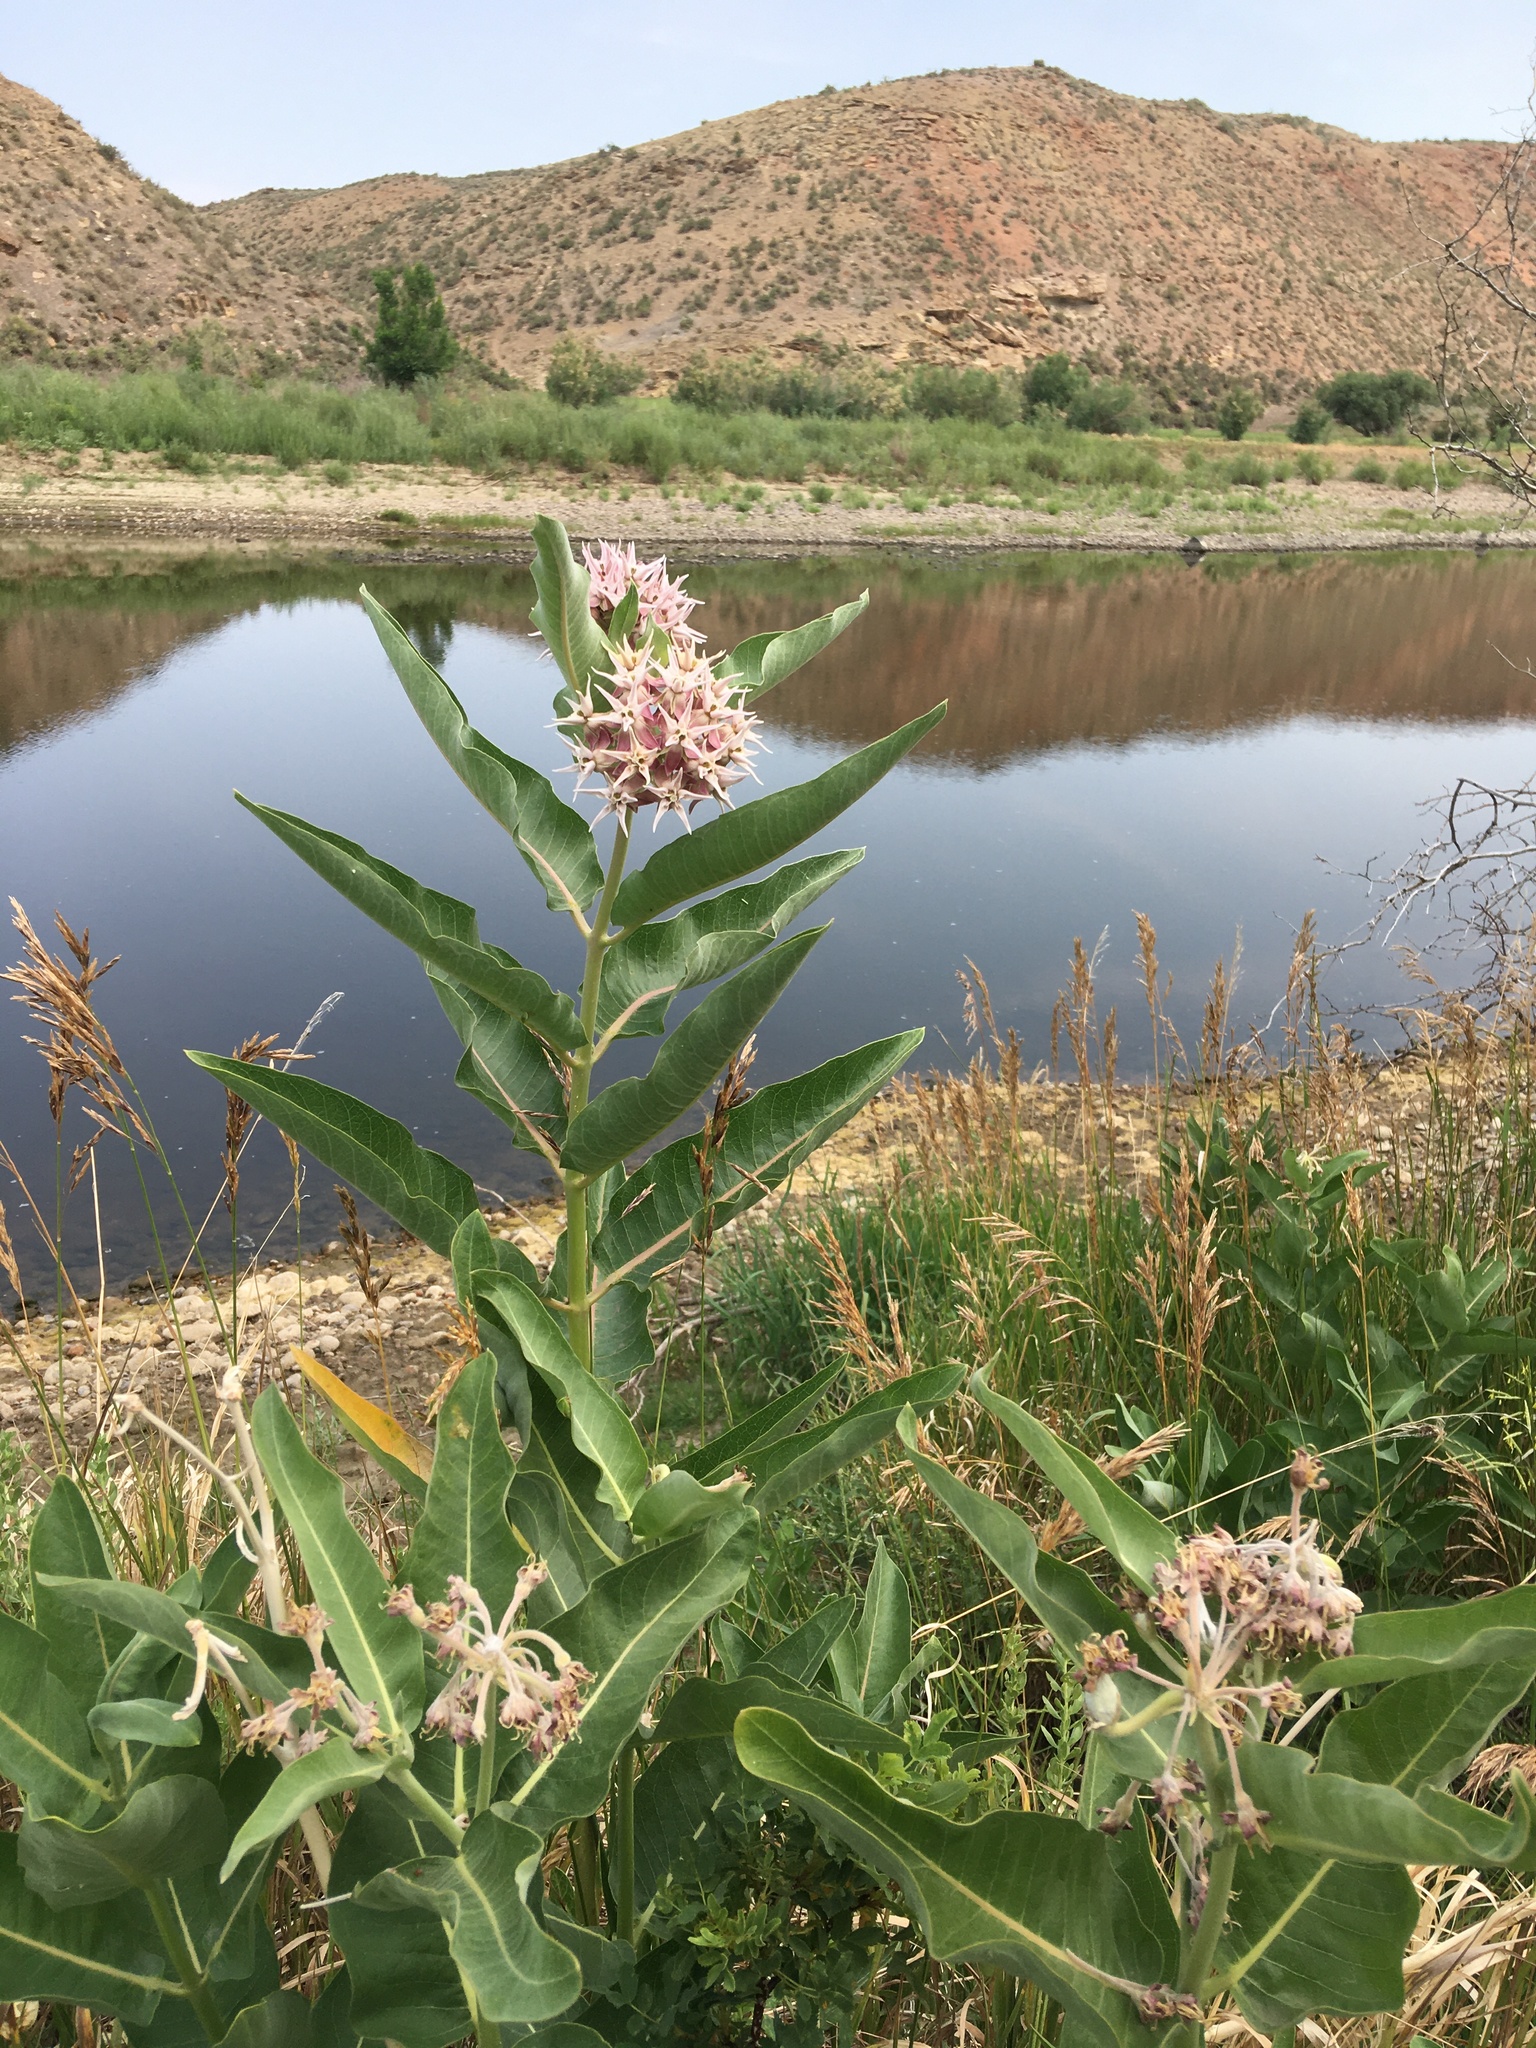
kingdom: Plantae
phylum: Tracheophyta
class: Magnoliopsida
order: Gentianales
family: Apocynaceae
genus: Asclepias
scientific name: Asclepias speciosa
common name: Showy milkweed
